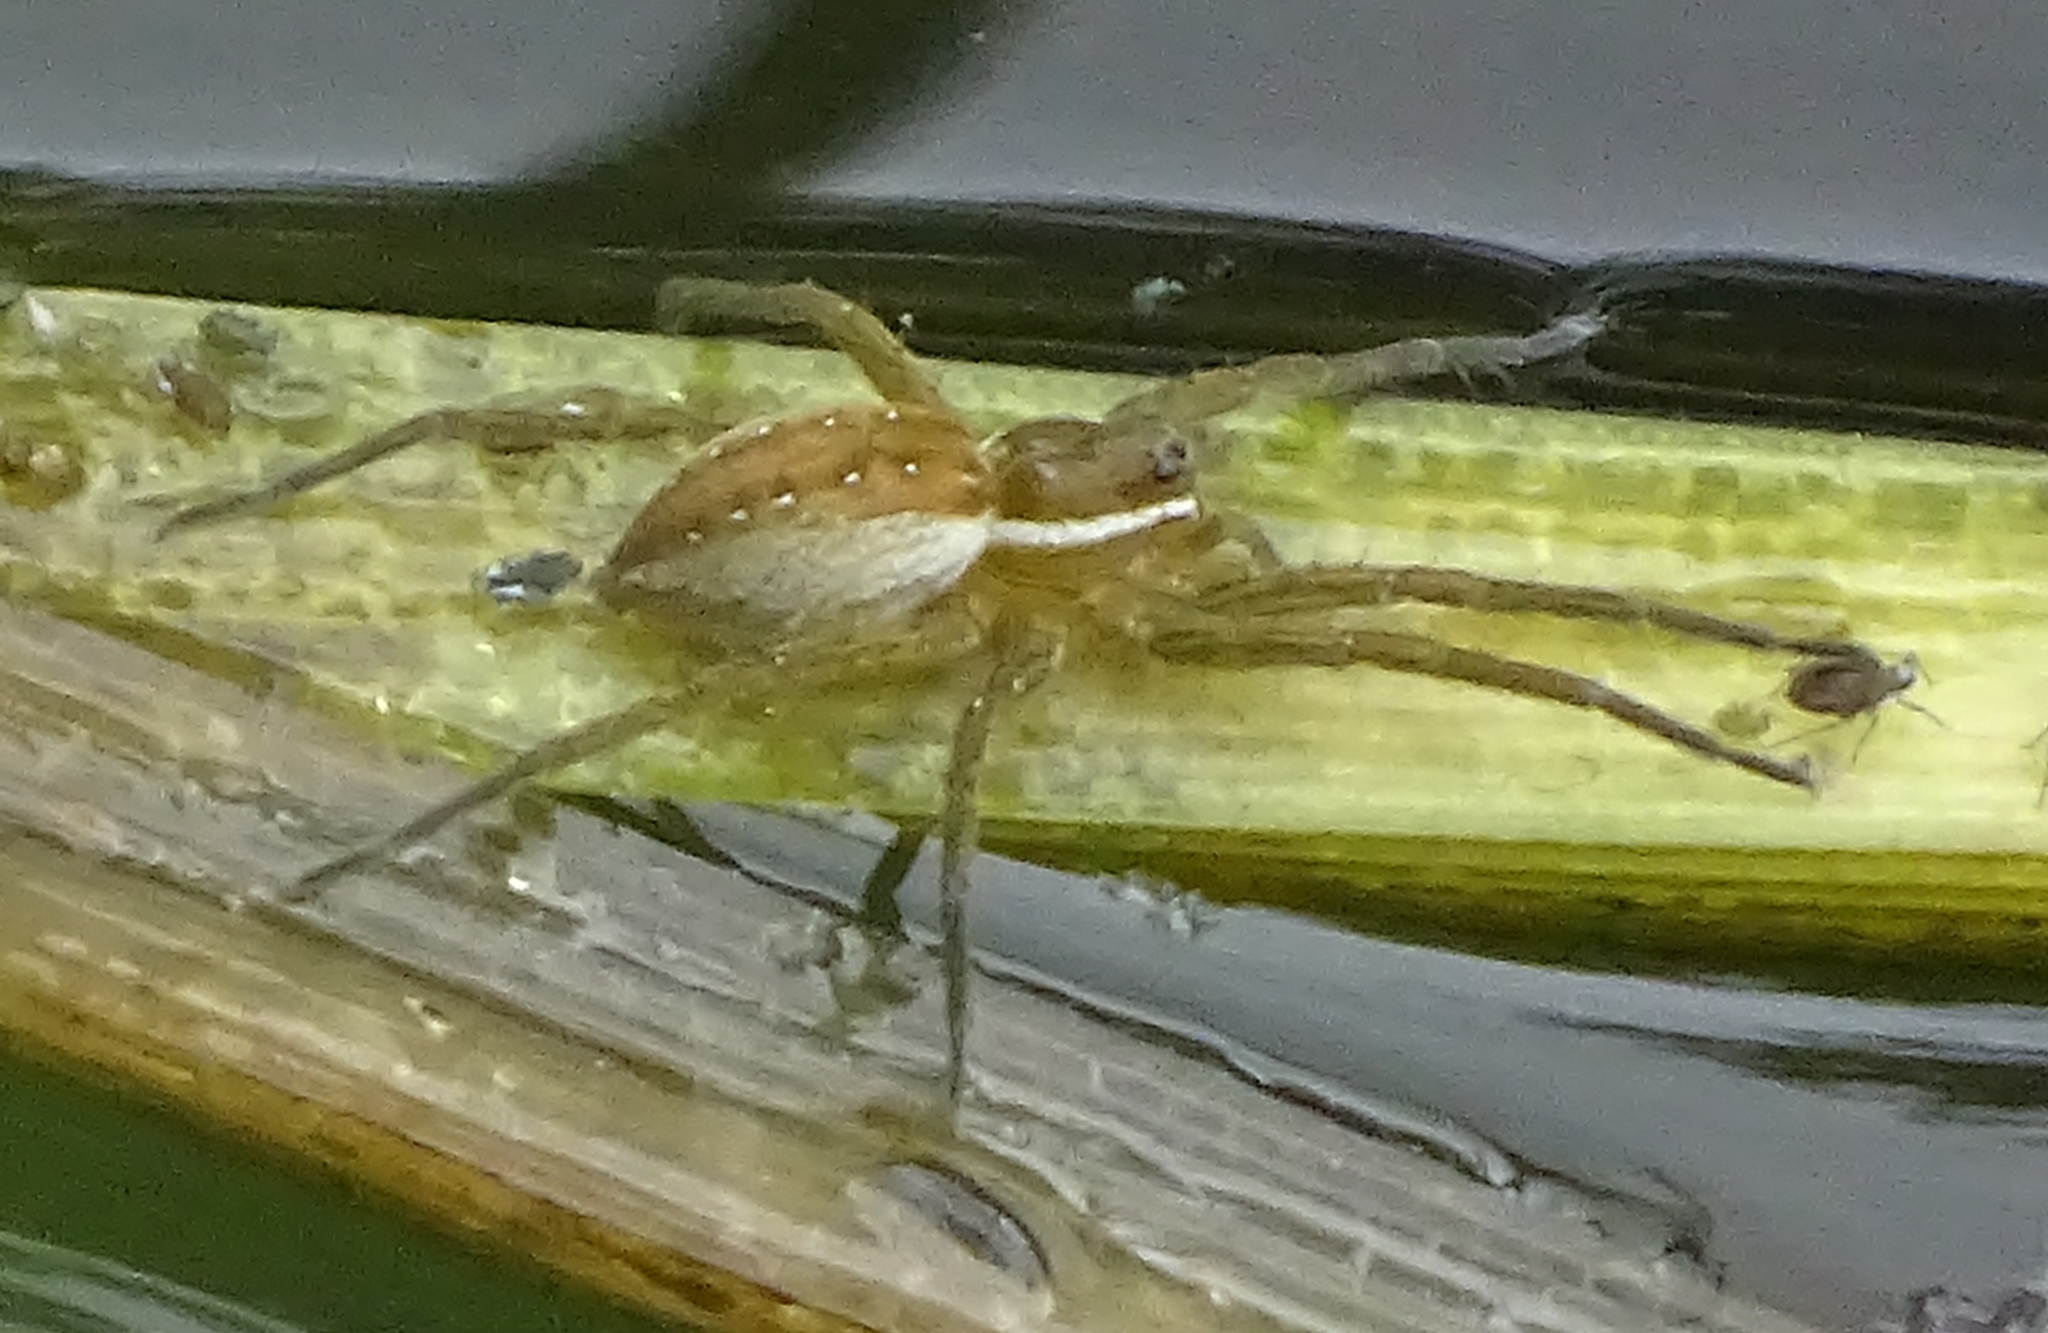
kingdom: Animalia
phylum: Arthropoda
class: Arachnida
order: Araneae
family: Pisauridae
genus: Dolomedes
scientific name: Dolomedes triton
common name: Six-spotted fishing spider
